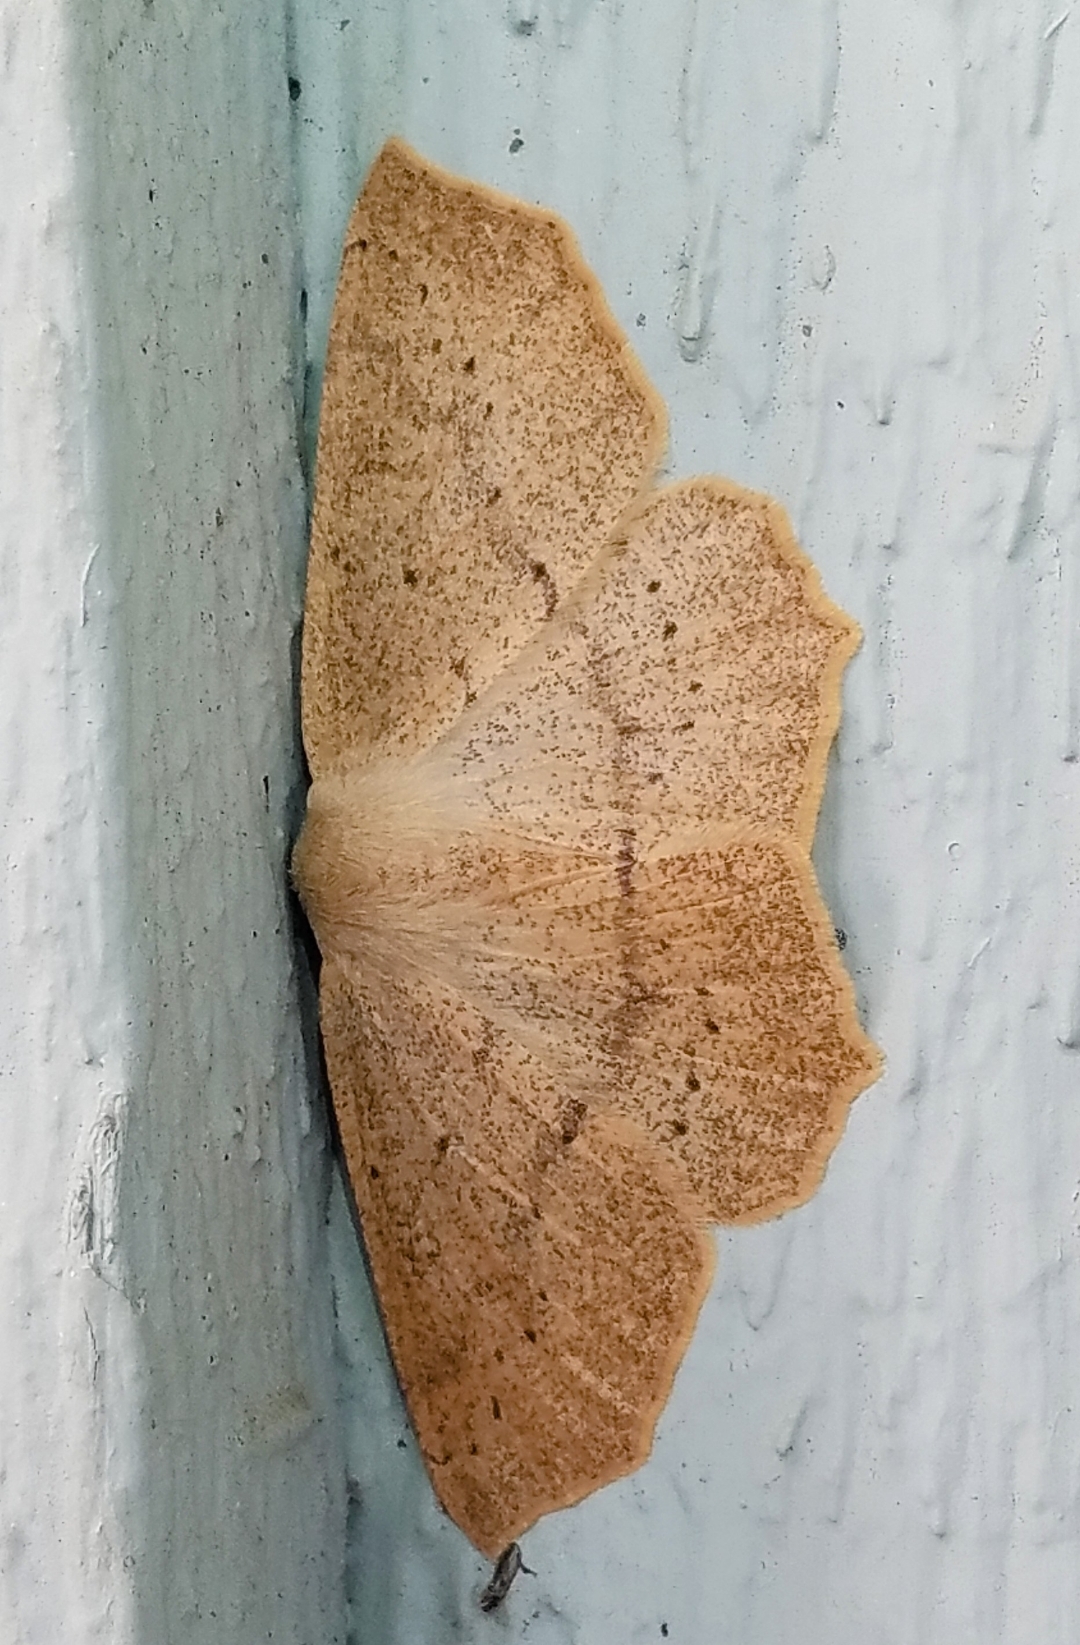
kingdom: Animalia
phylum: Arthropoda
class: Insecta
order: Lepidoptera
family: Geometridae
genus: Sabulodes
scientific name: Sabulodes aegrotata
